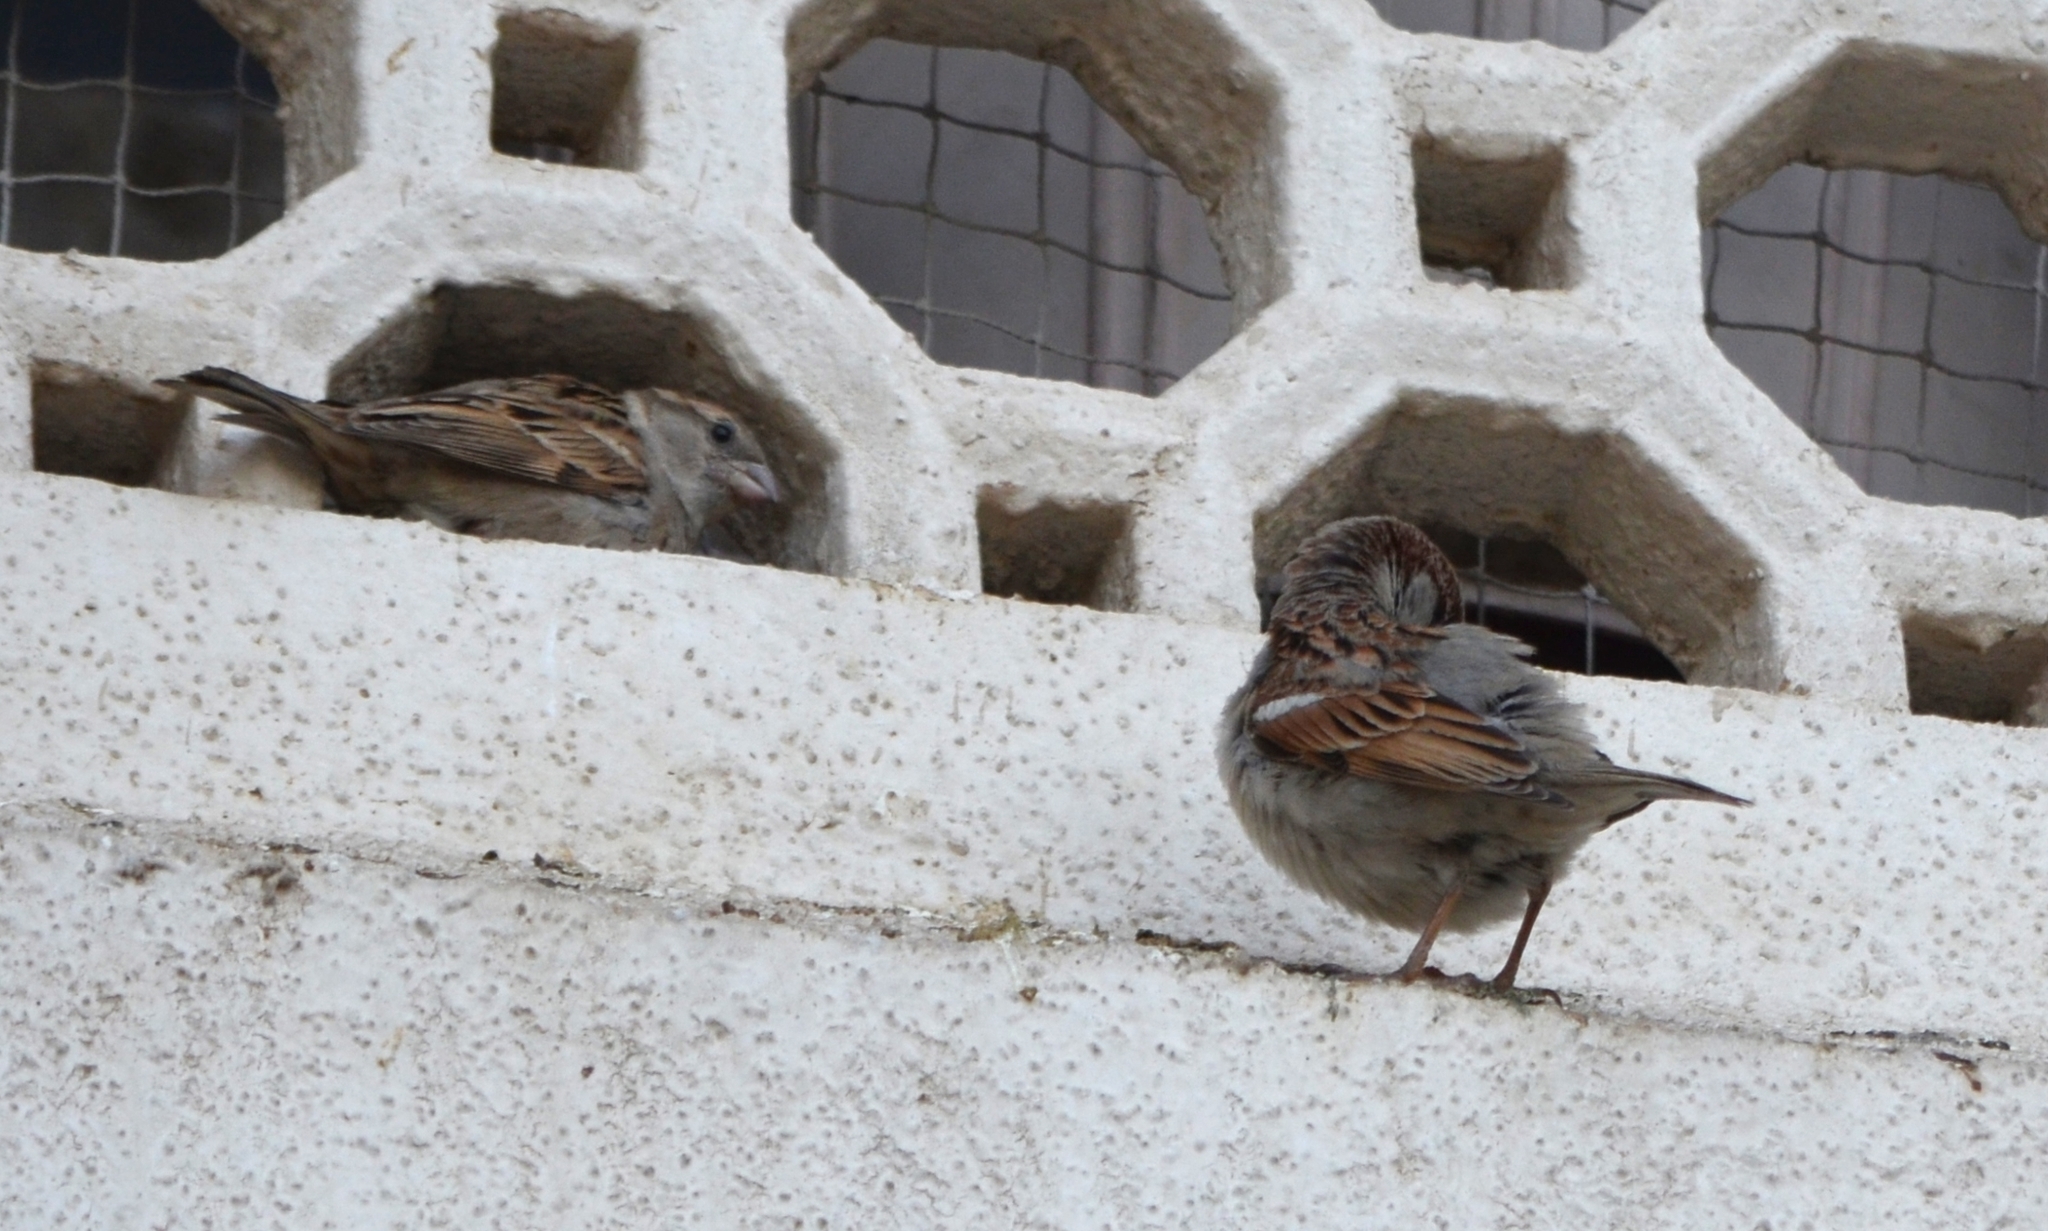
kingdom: Animalia
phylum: Chordata
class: Aves
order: Passeriformes
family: Passeridae
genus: Passer
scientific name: Passer domesticus
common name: House sparrow
